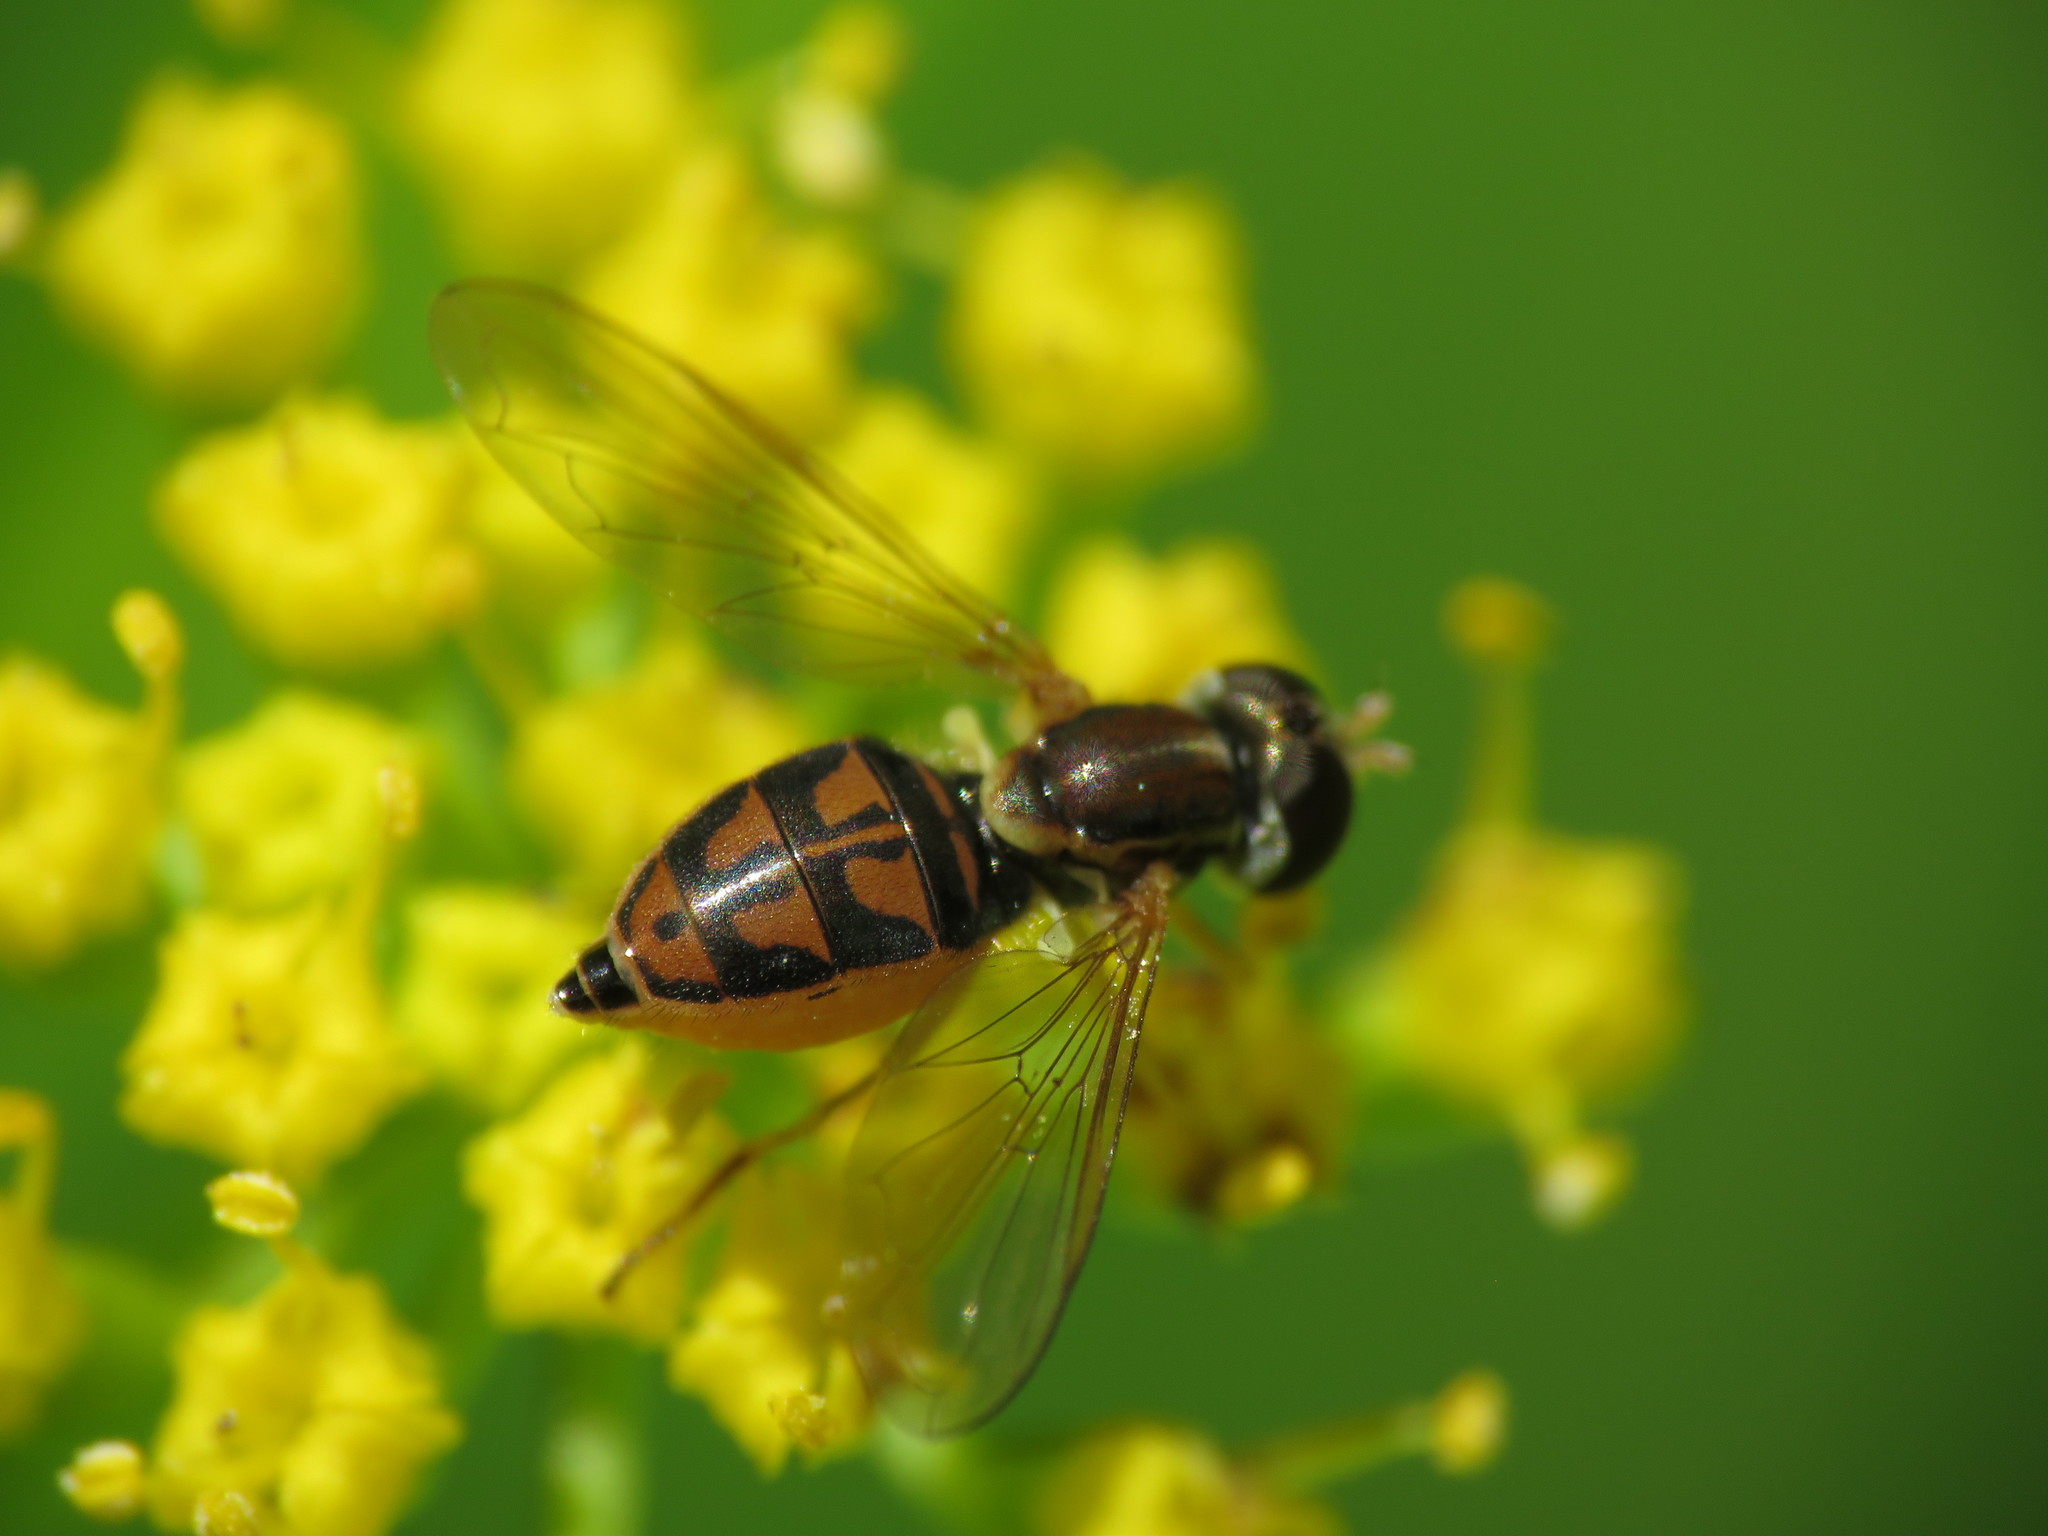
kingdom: Animalia
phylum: Arthropoda
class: Insecta
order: Diptera
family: Syrphidae
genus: Toxomerus
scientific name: Toxomerus marginatus
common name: Syrphid fly
